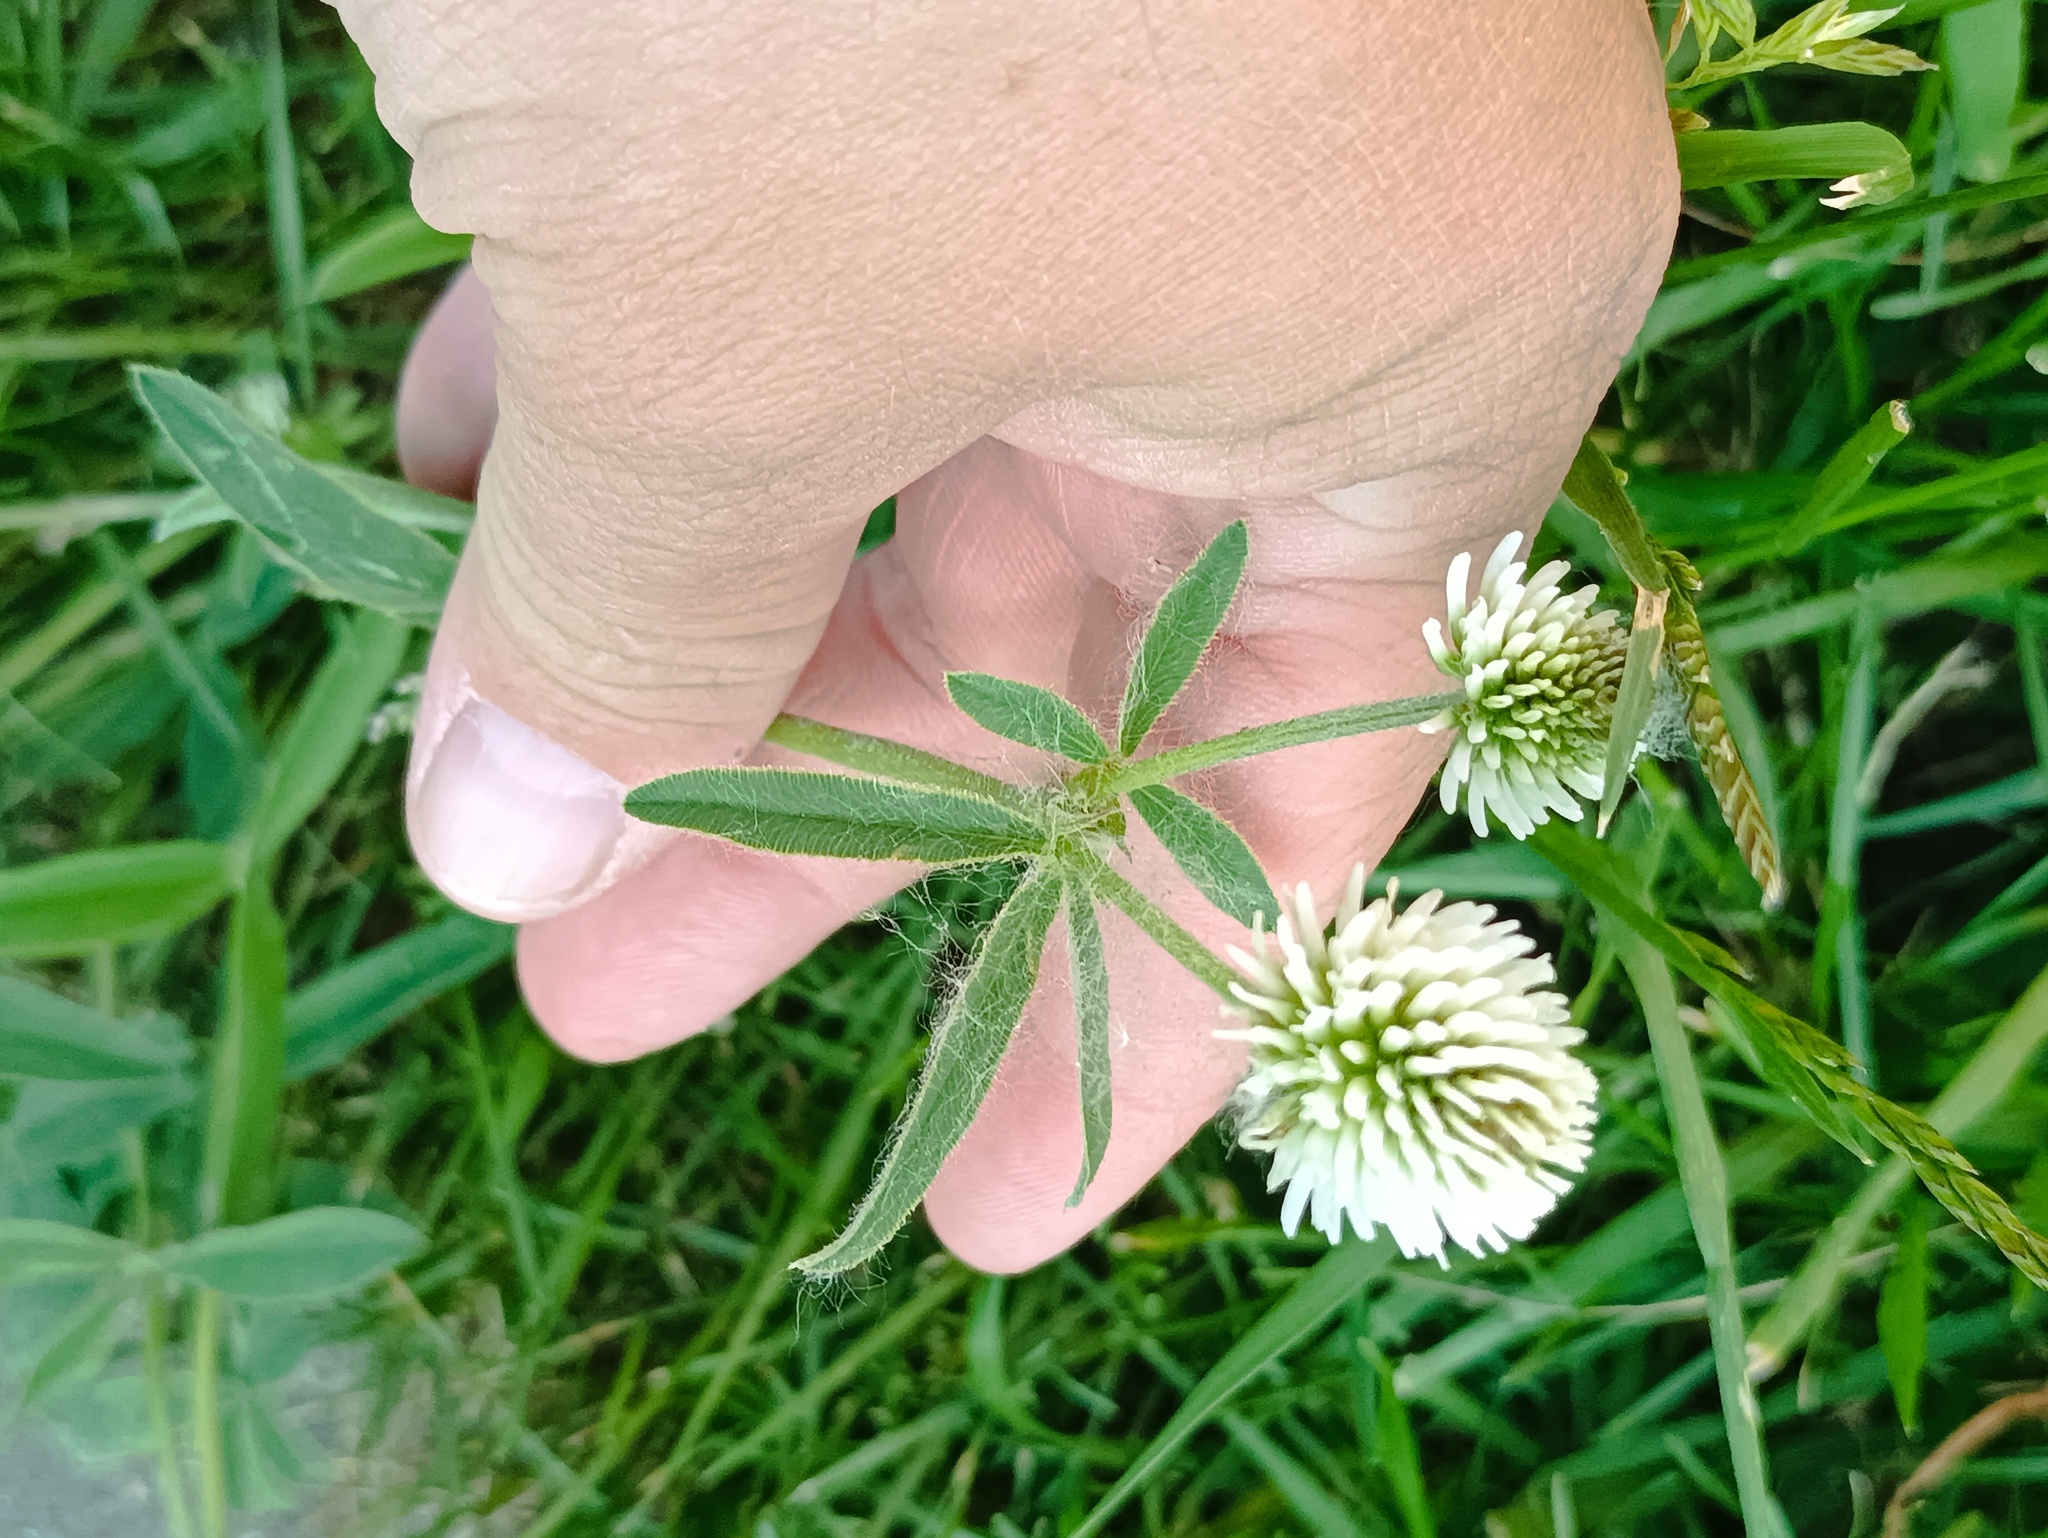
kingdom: Plantae
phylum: Tracheophyta
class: Magnoliopsida
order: Fabales
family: Fabaceae
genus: Trifolium
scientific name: Trifolium montanum
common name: Mountain clover
